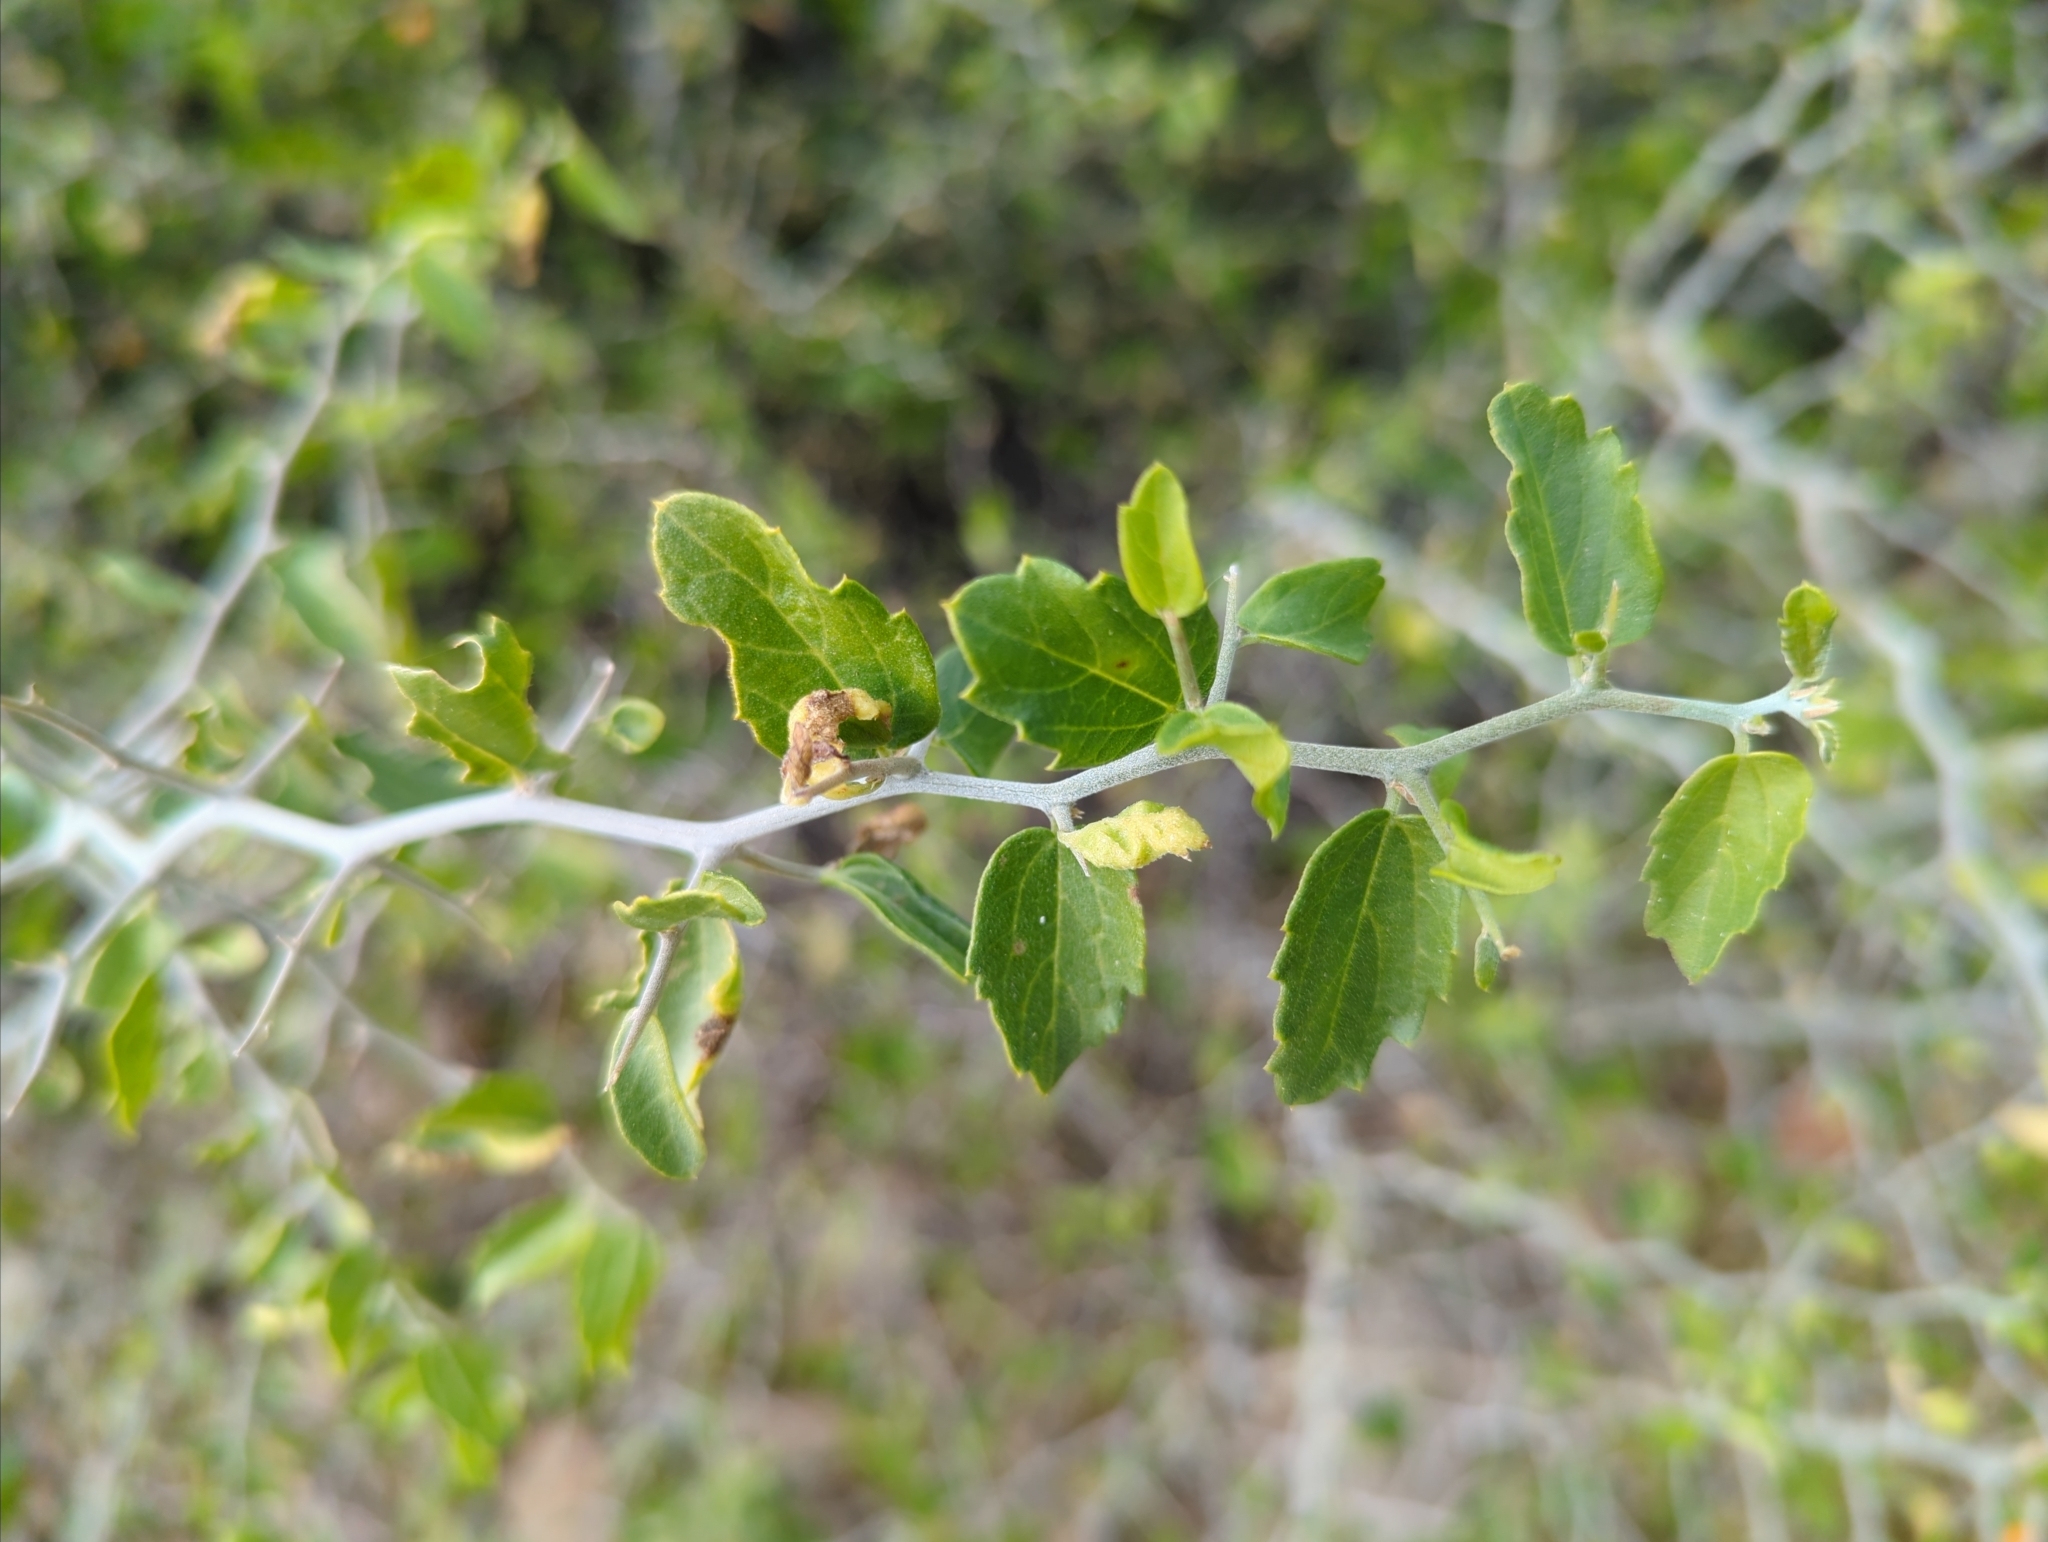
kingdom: Plantae
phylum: Tracheophyta
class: Magnoliopsida
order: Rosales
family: Cannabaceae
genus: Celtis
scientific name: Celtis pallida
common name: Desert hackberry
